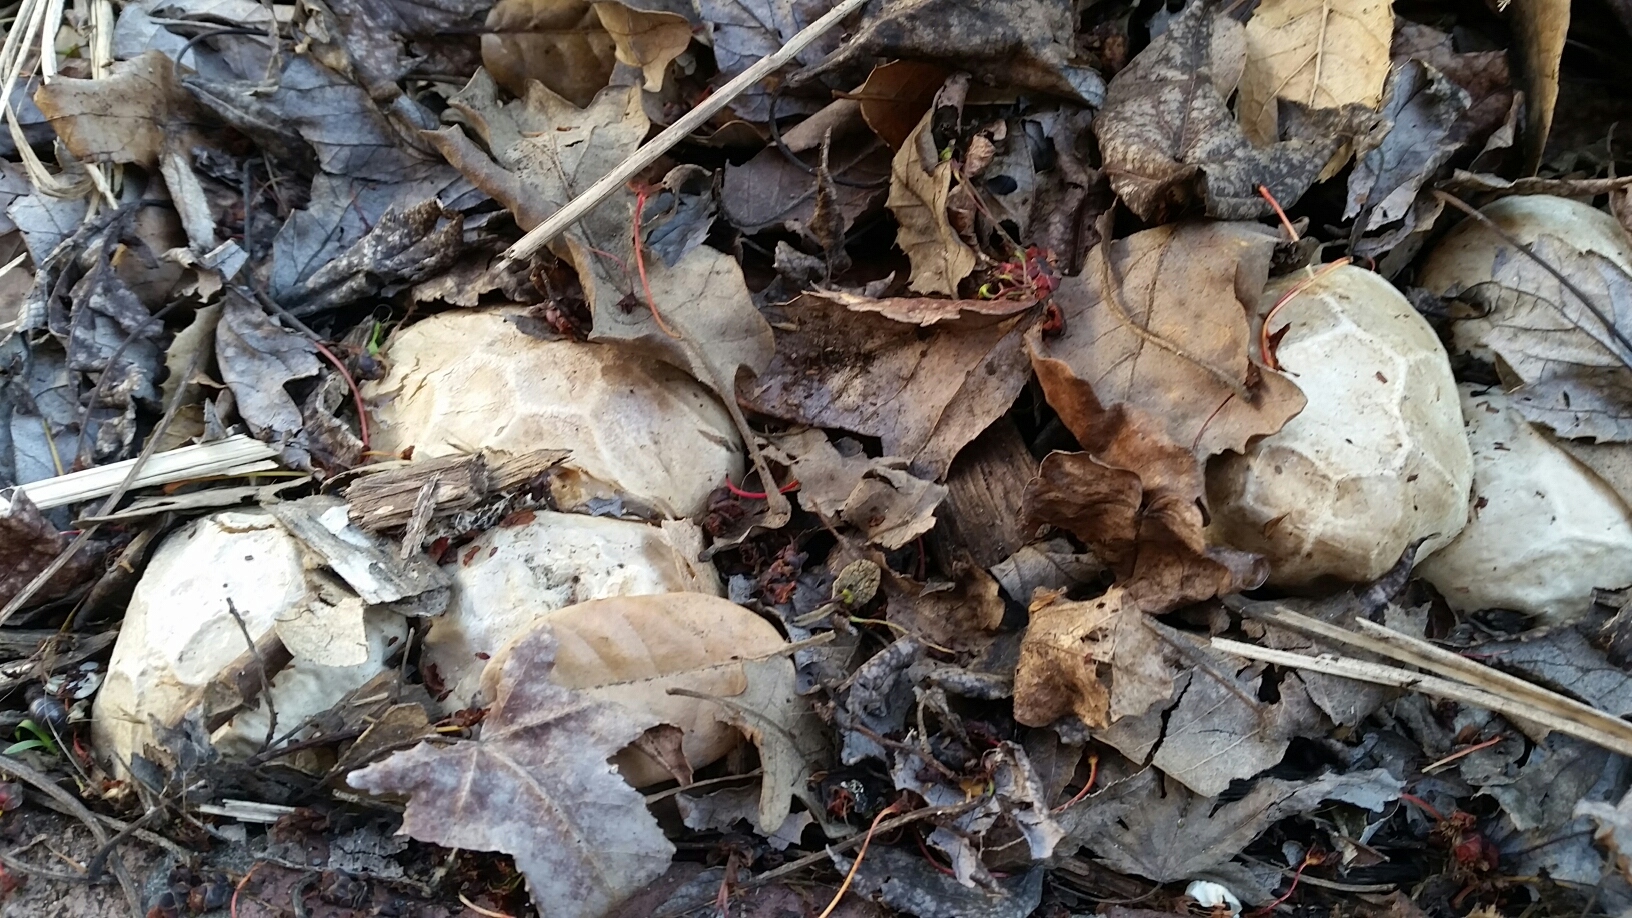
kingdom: Fungi
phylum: Basidiomycota
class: Agaricomycetes
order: Phallales
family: Phallaceae
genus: Clathrus
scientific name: Clathrus ruber
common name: Red cage
